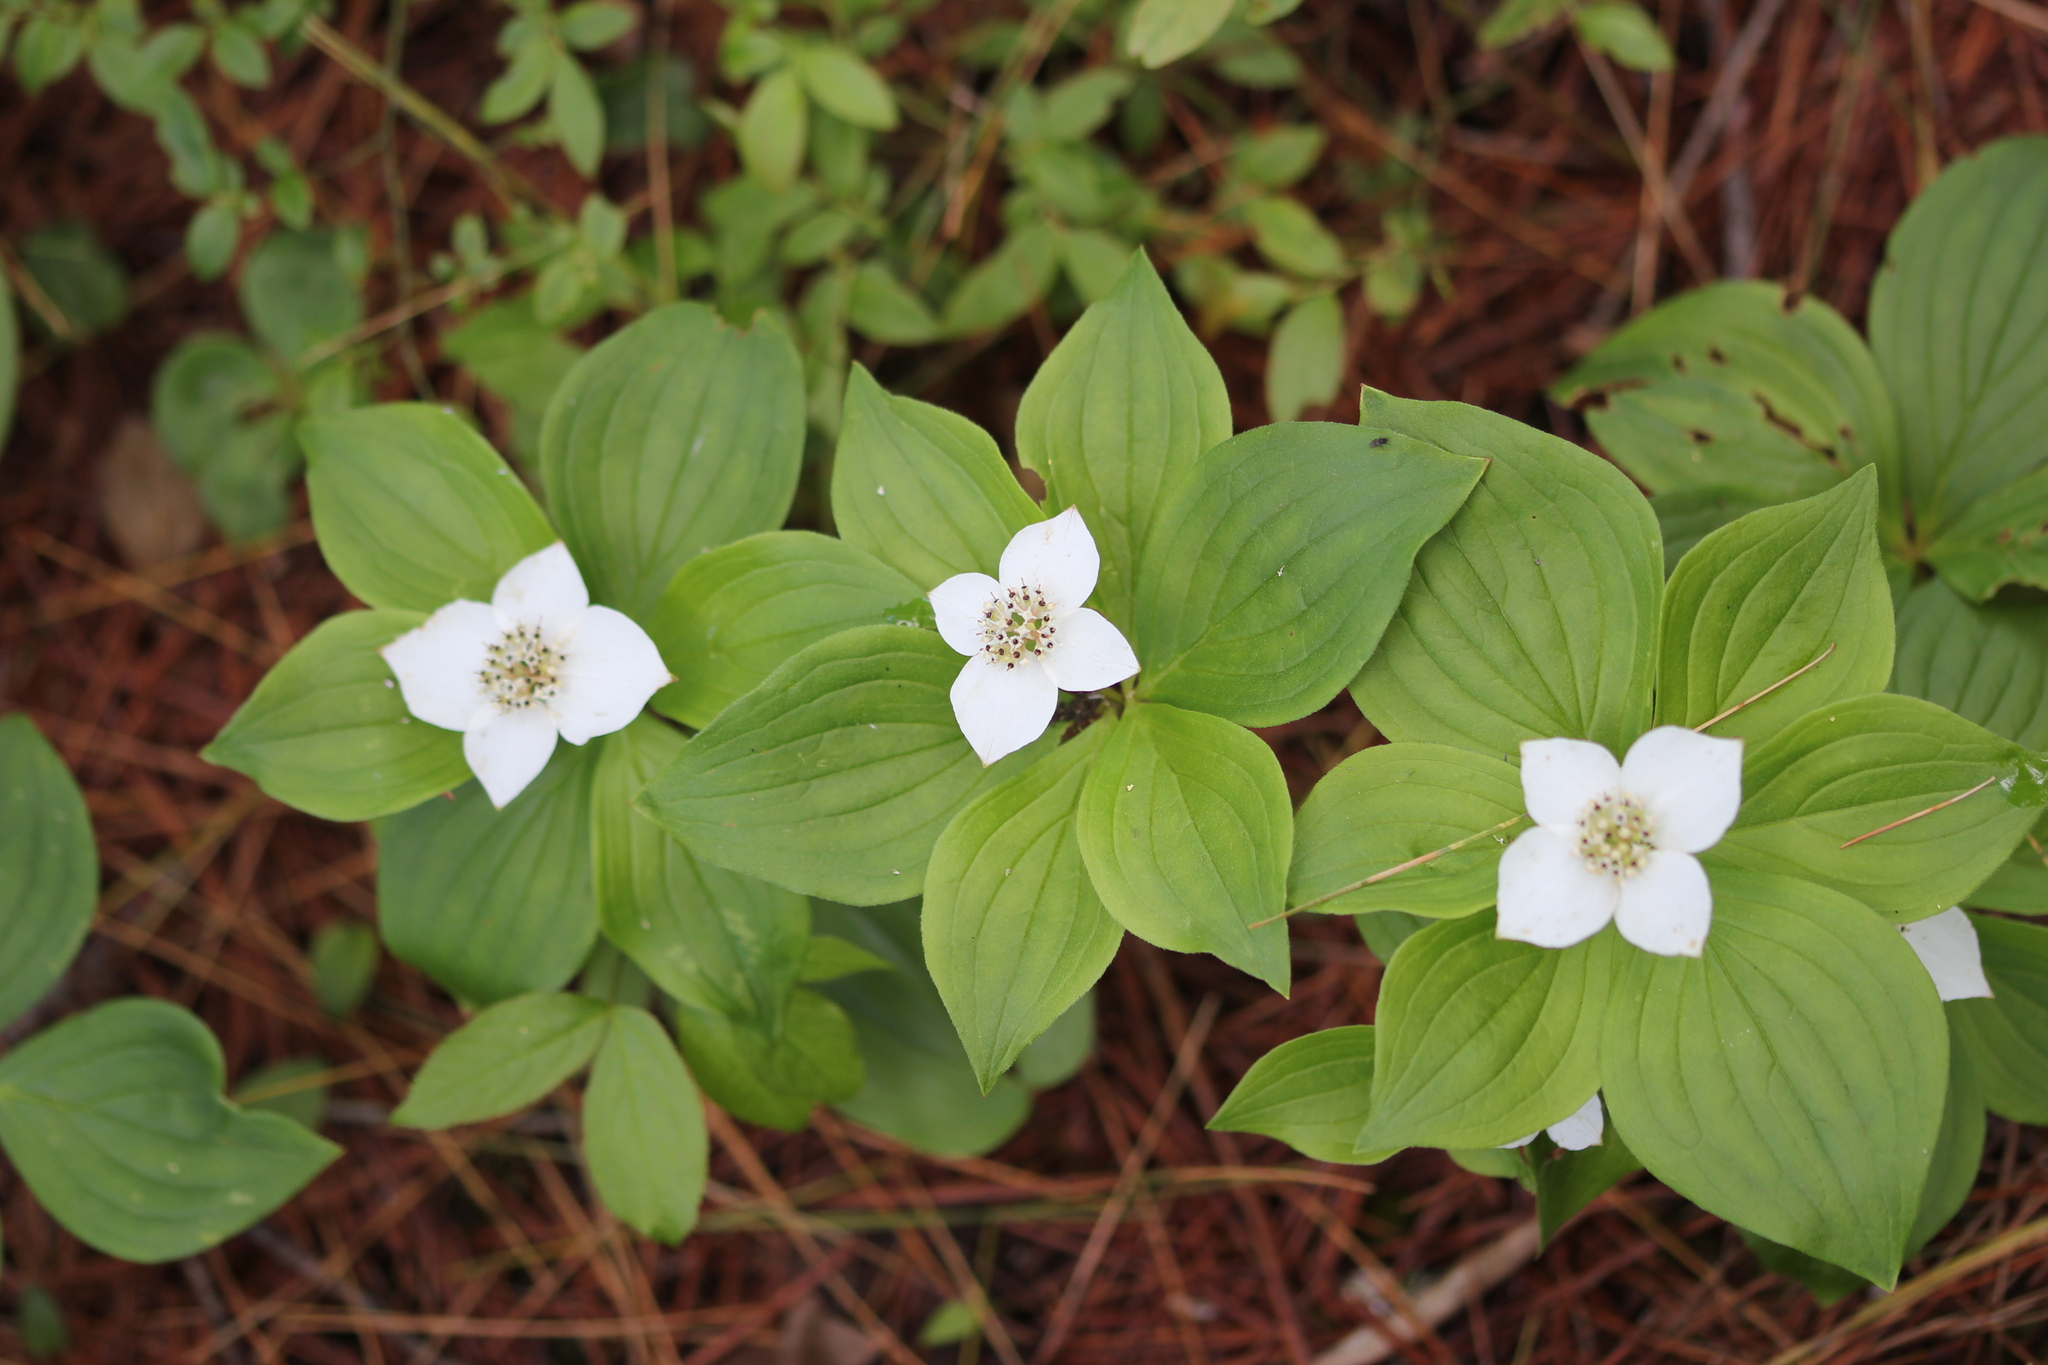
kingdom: Plantae
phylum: Tracheophyta
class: Magnoliopsida
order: Cornales
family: Cornaceae
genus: Cornus
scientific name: Cornus canadensis
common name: Creeping dogwood
